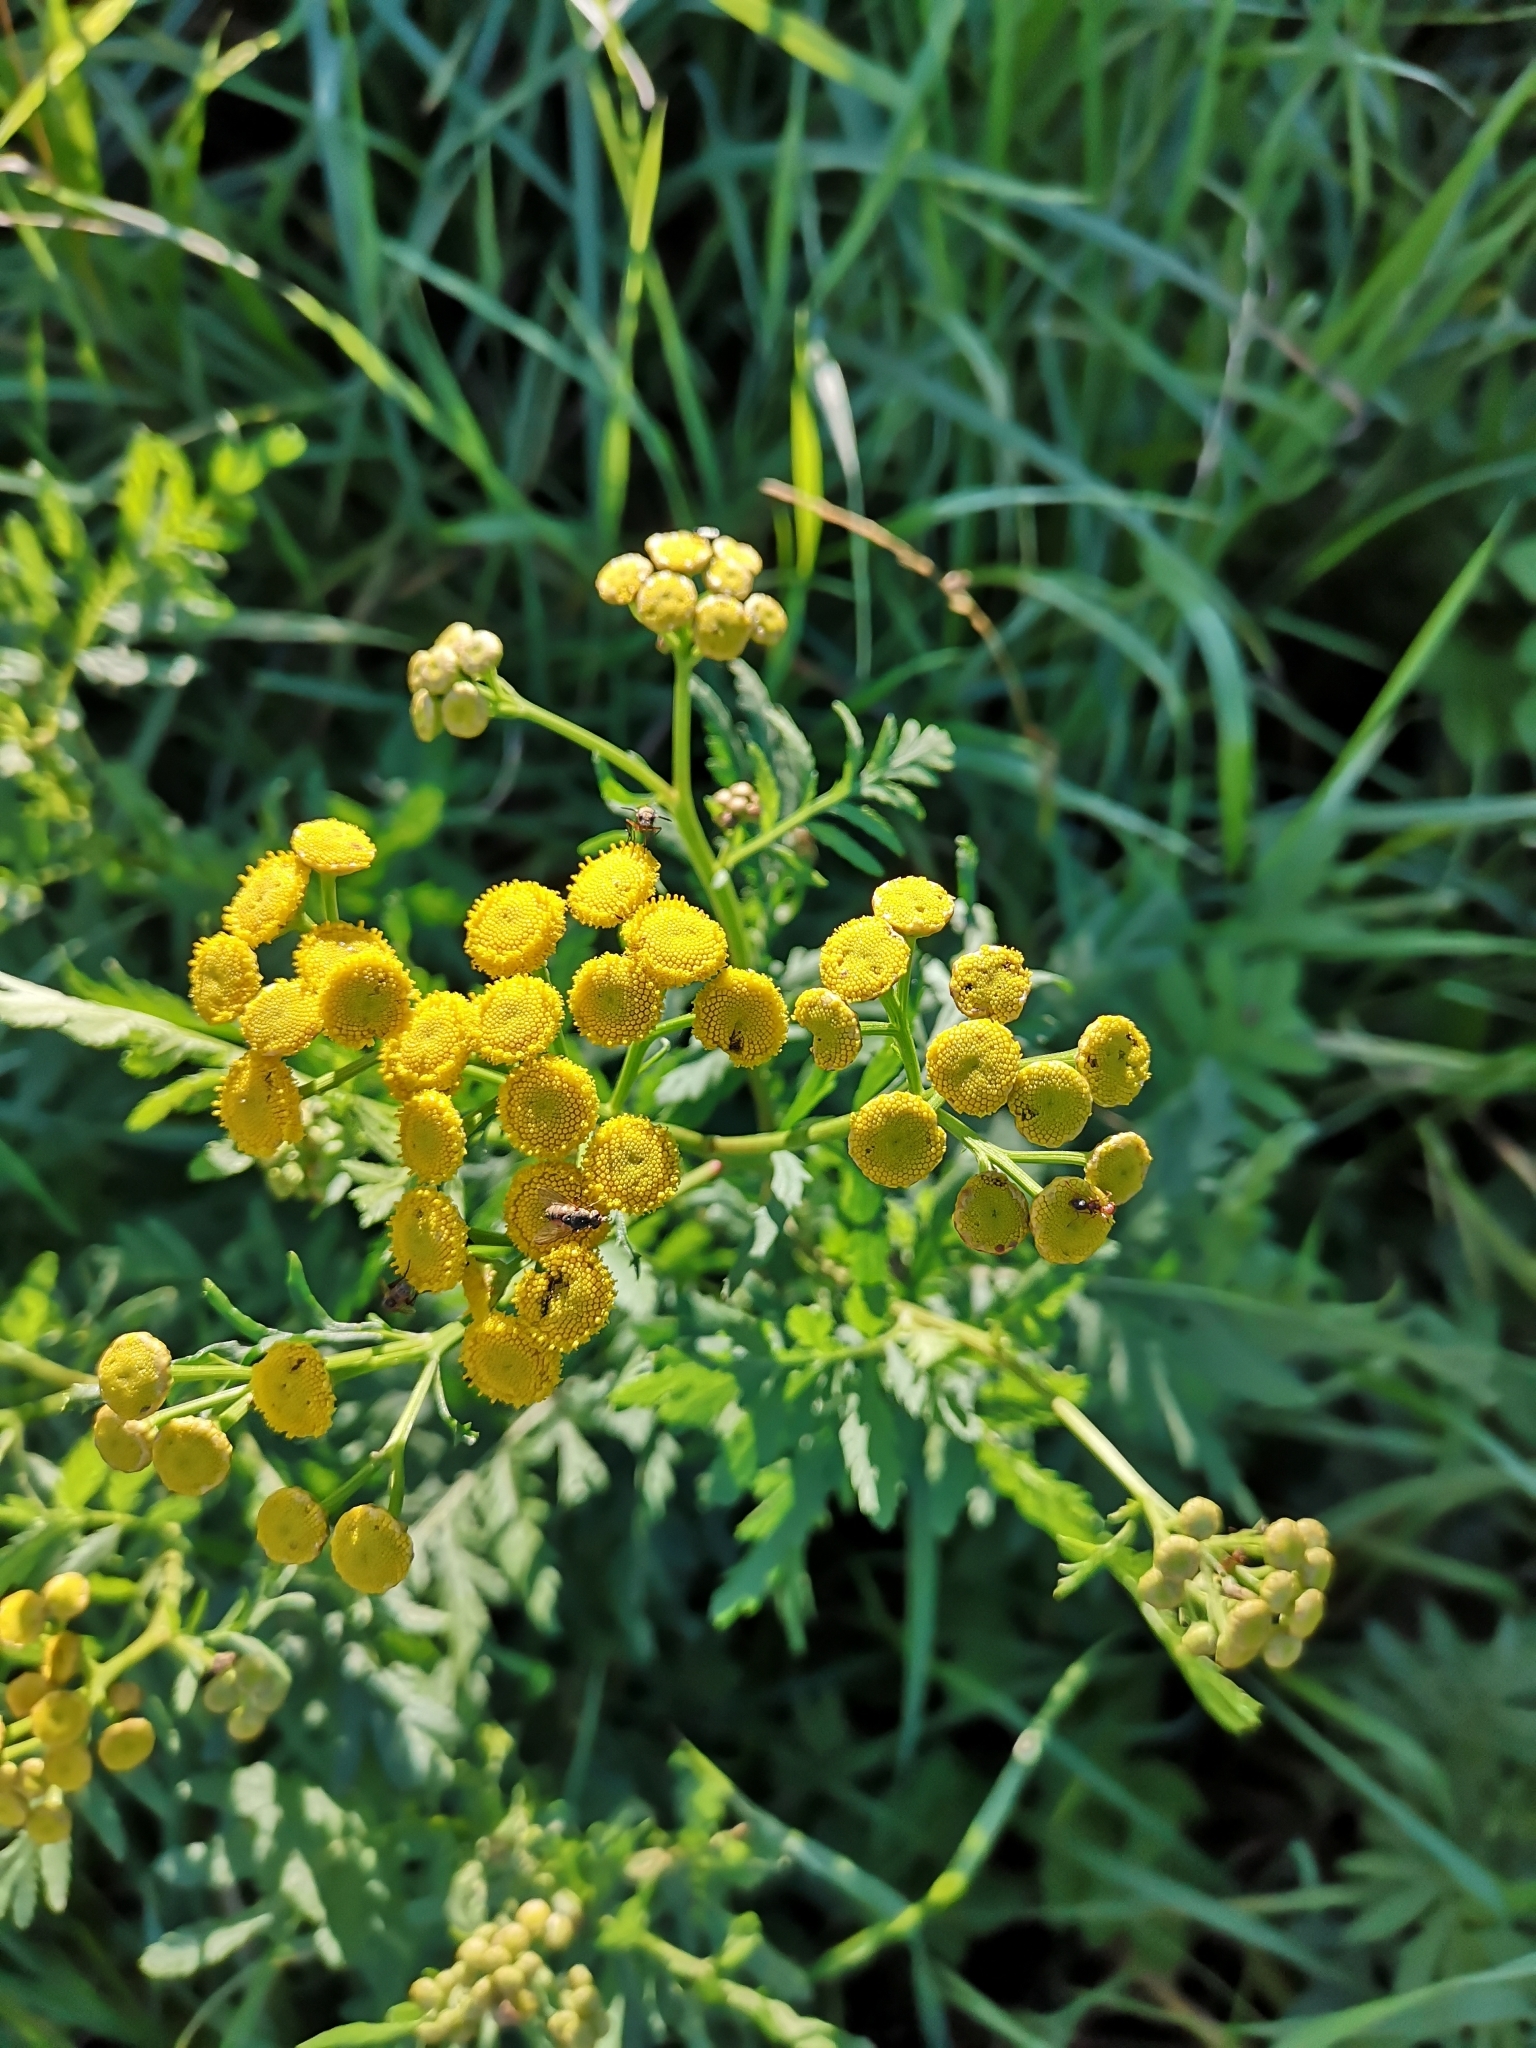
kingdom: Plantae
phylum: Tracheophyta
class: Magnoliopsida
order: Asterales
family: Asteraceae
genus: Tanacetum
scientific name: Tanacetum vulgare
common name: Common tansy
